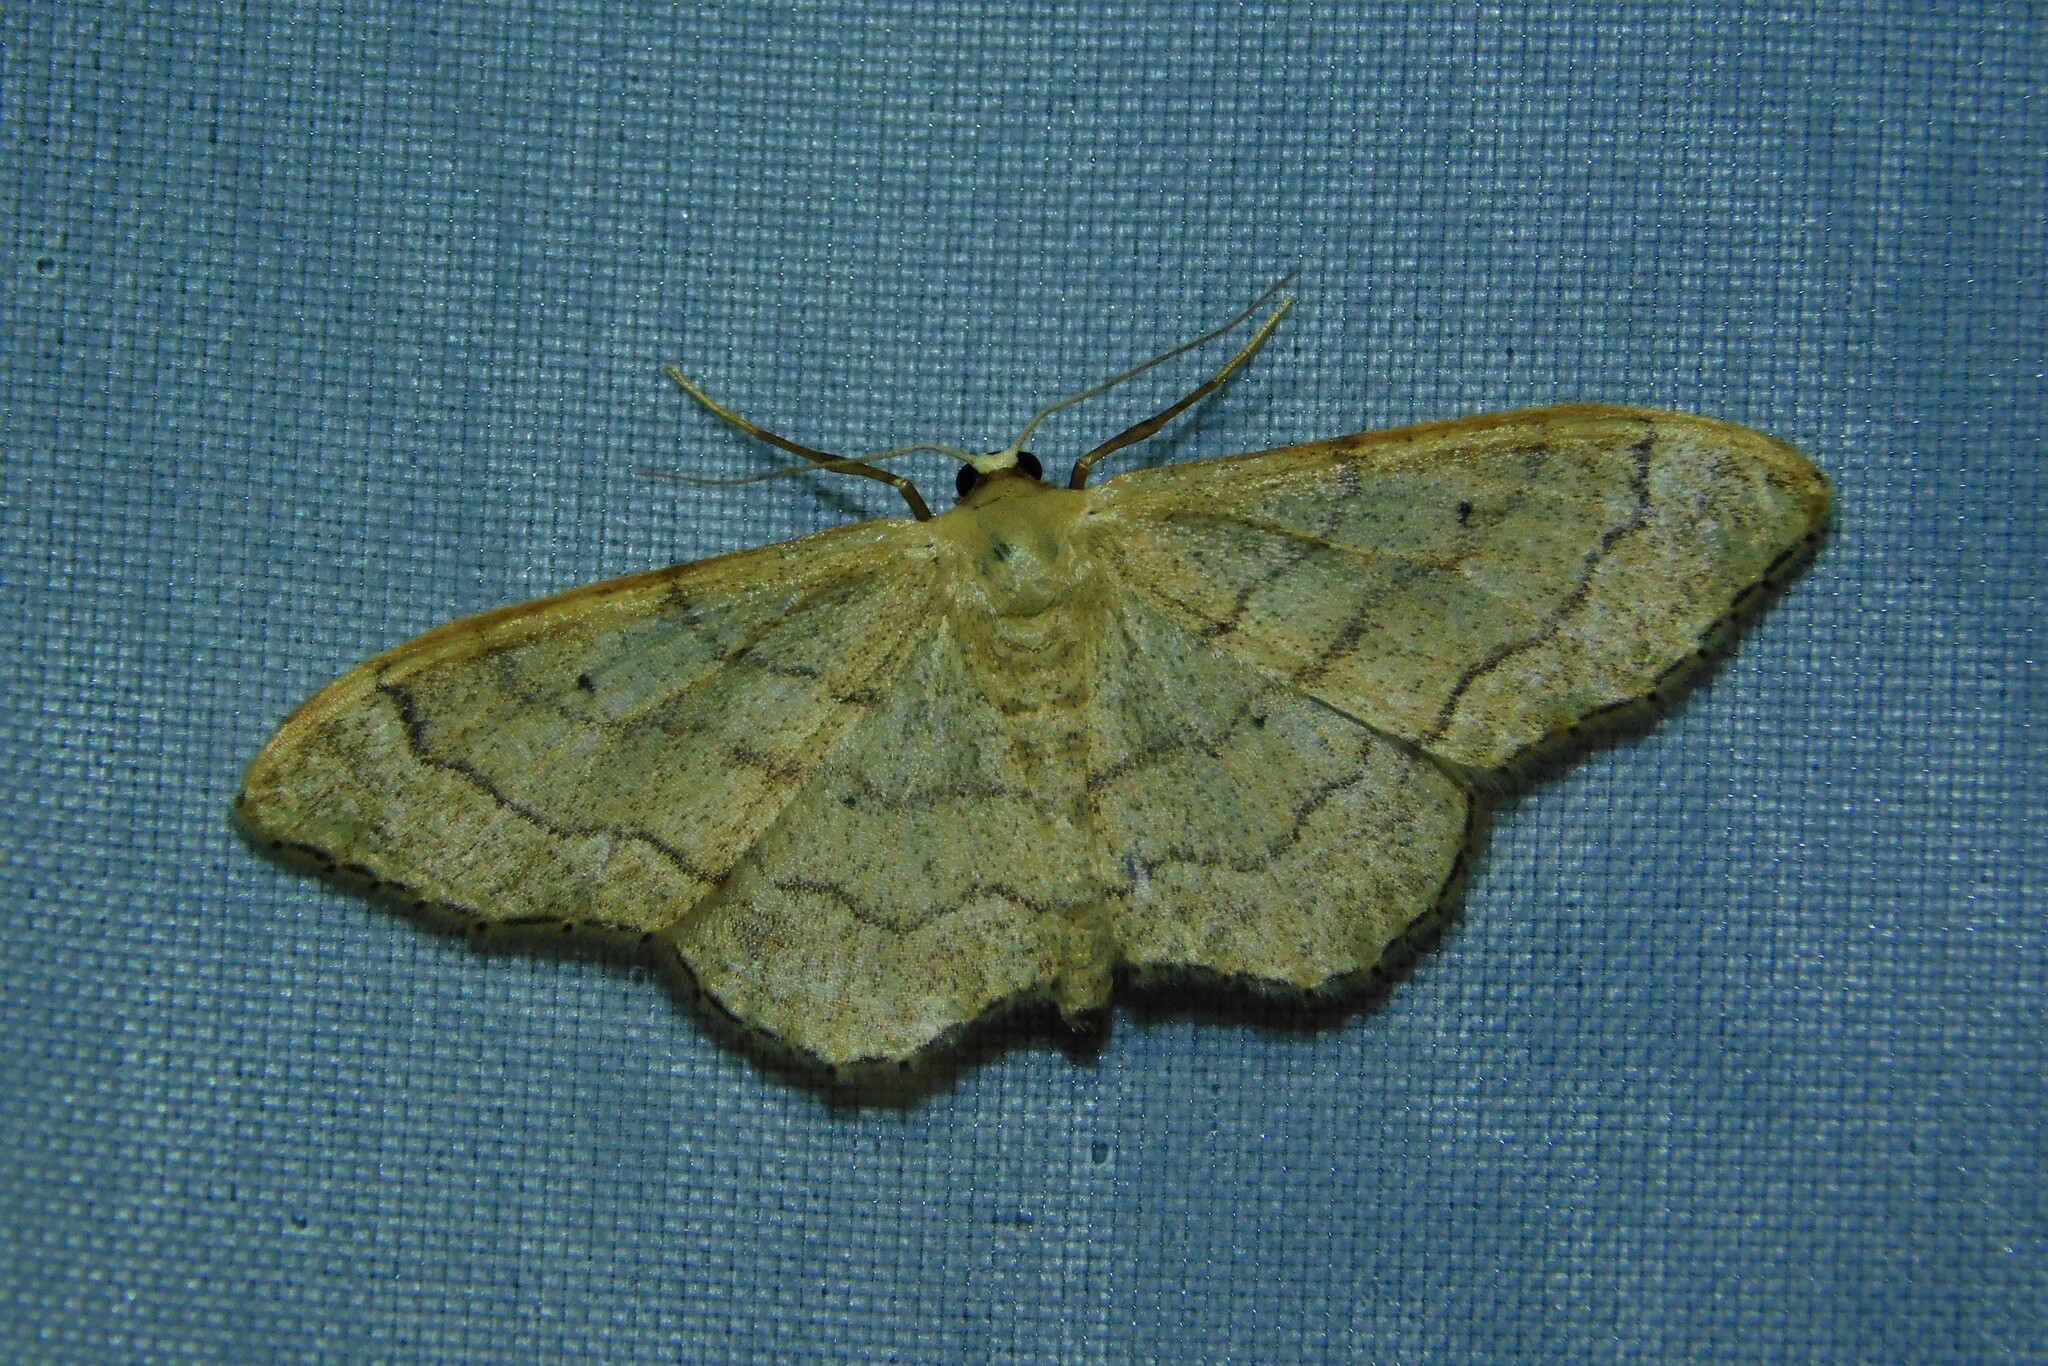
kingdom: Animalia
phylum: Arthropoda
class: Insecta
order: Lepidoptera
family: Geometridae
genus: Idaea
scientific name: Idaea aversata
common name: Riband wave
